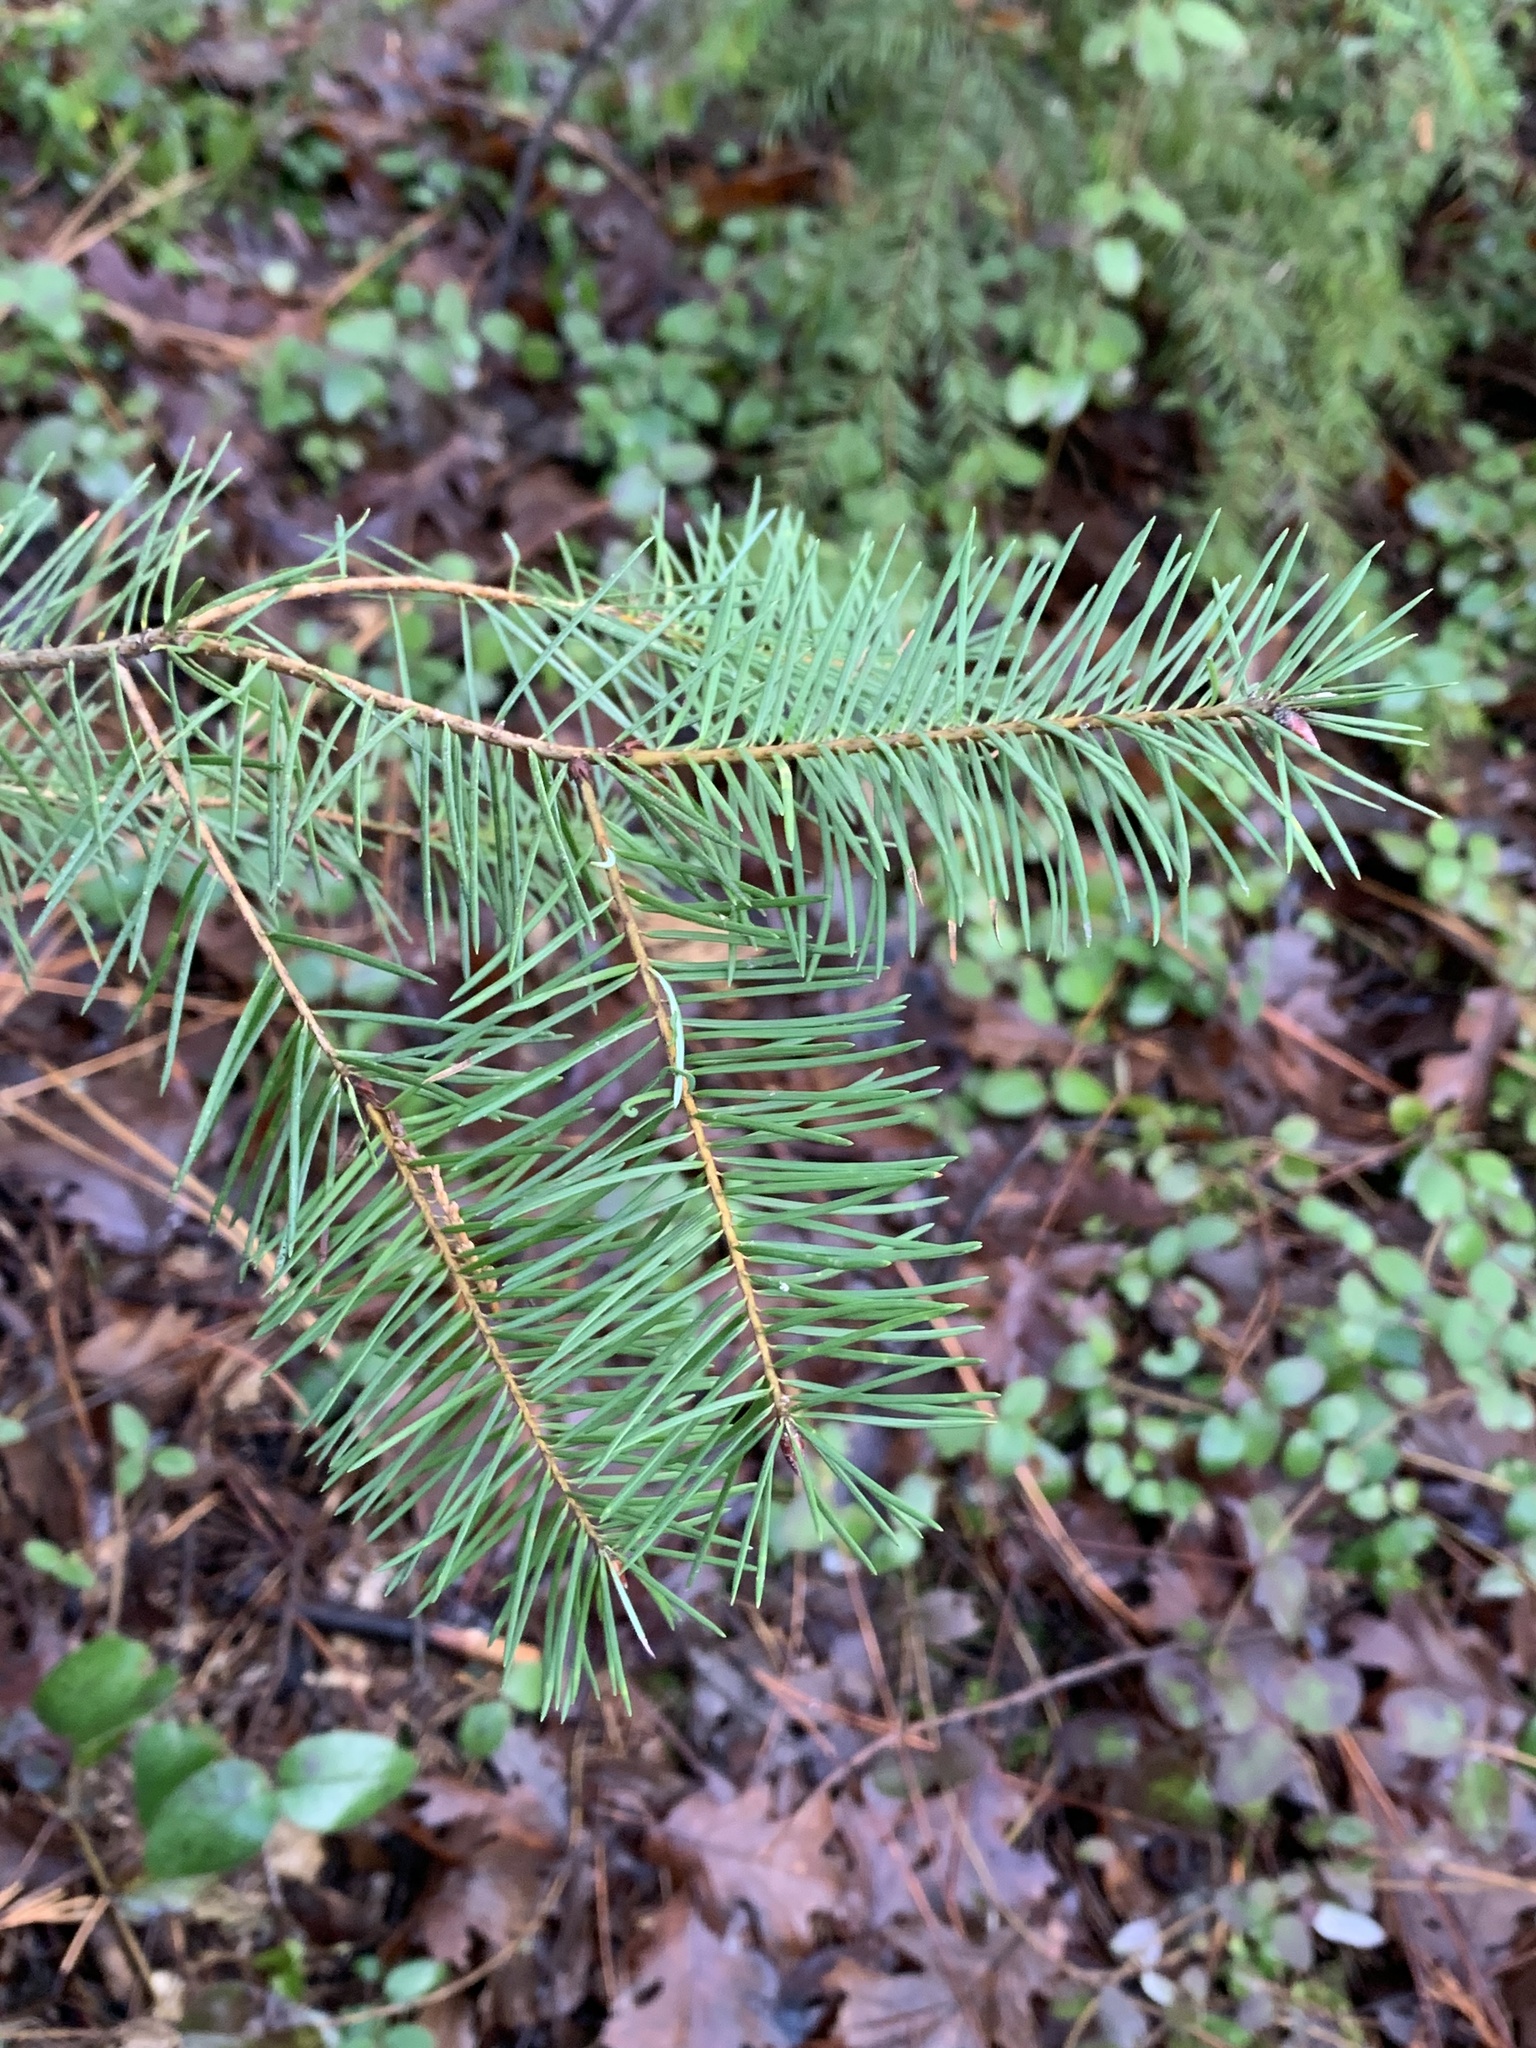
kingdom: Plantae
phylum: Tracheophyta
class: Pinopsida
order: Pinales
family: Pinaceae
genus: Pseudotsuga
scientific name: Pseudotsuga menziesii
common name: Douglas fir
